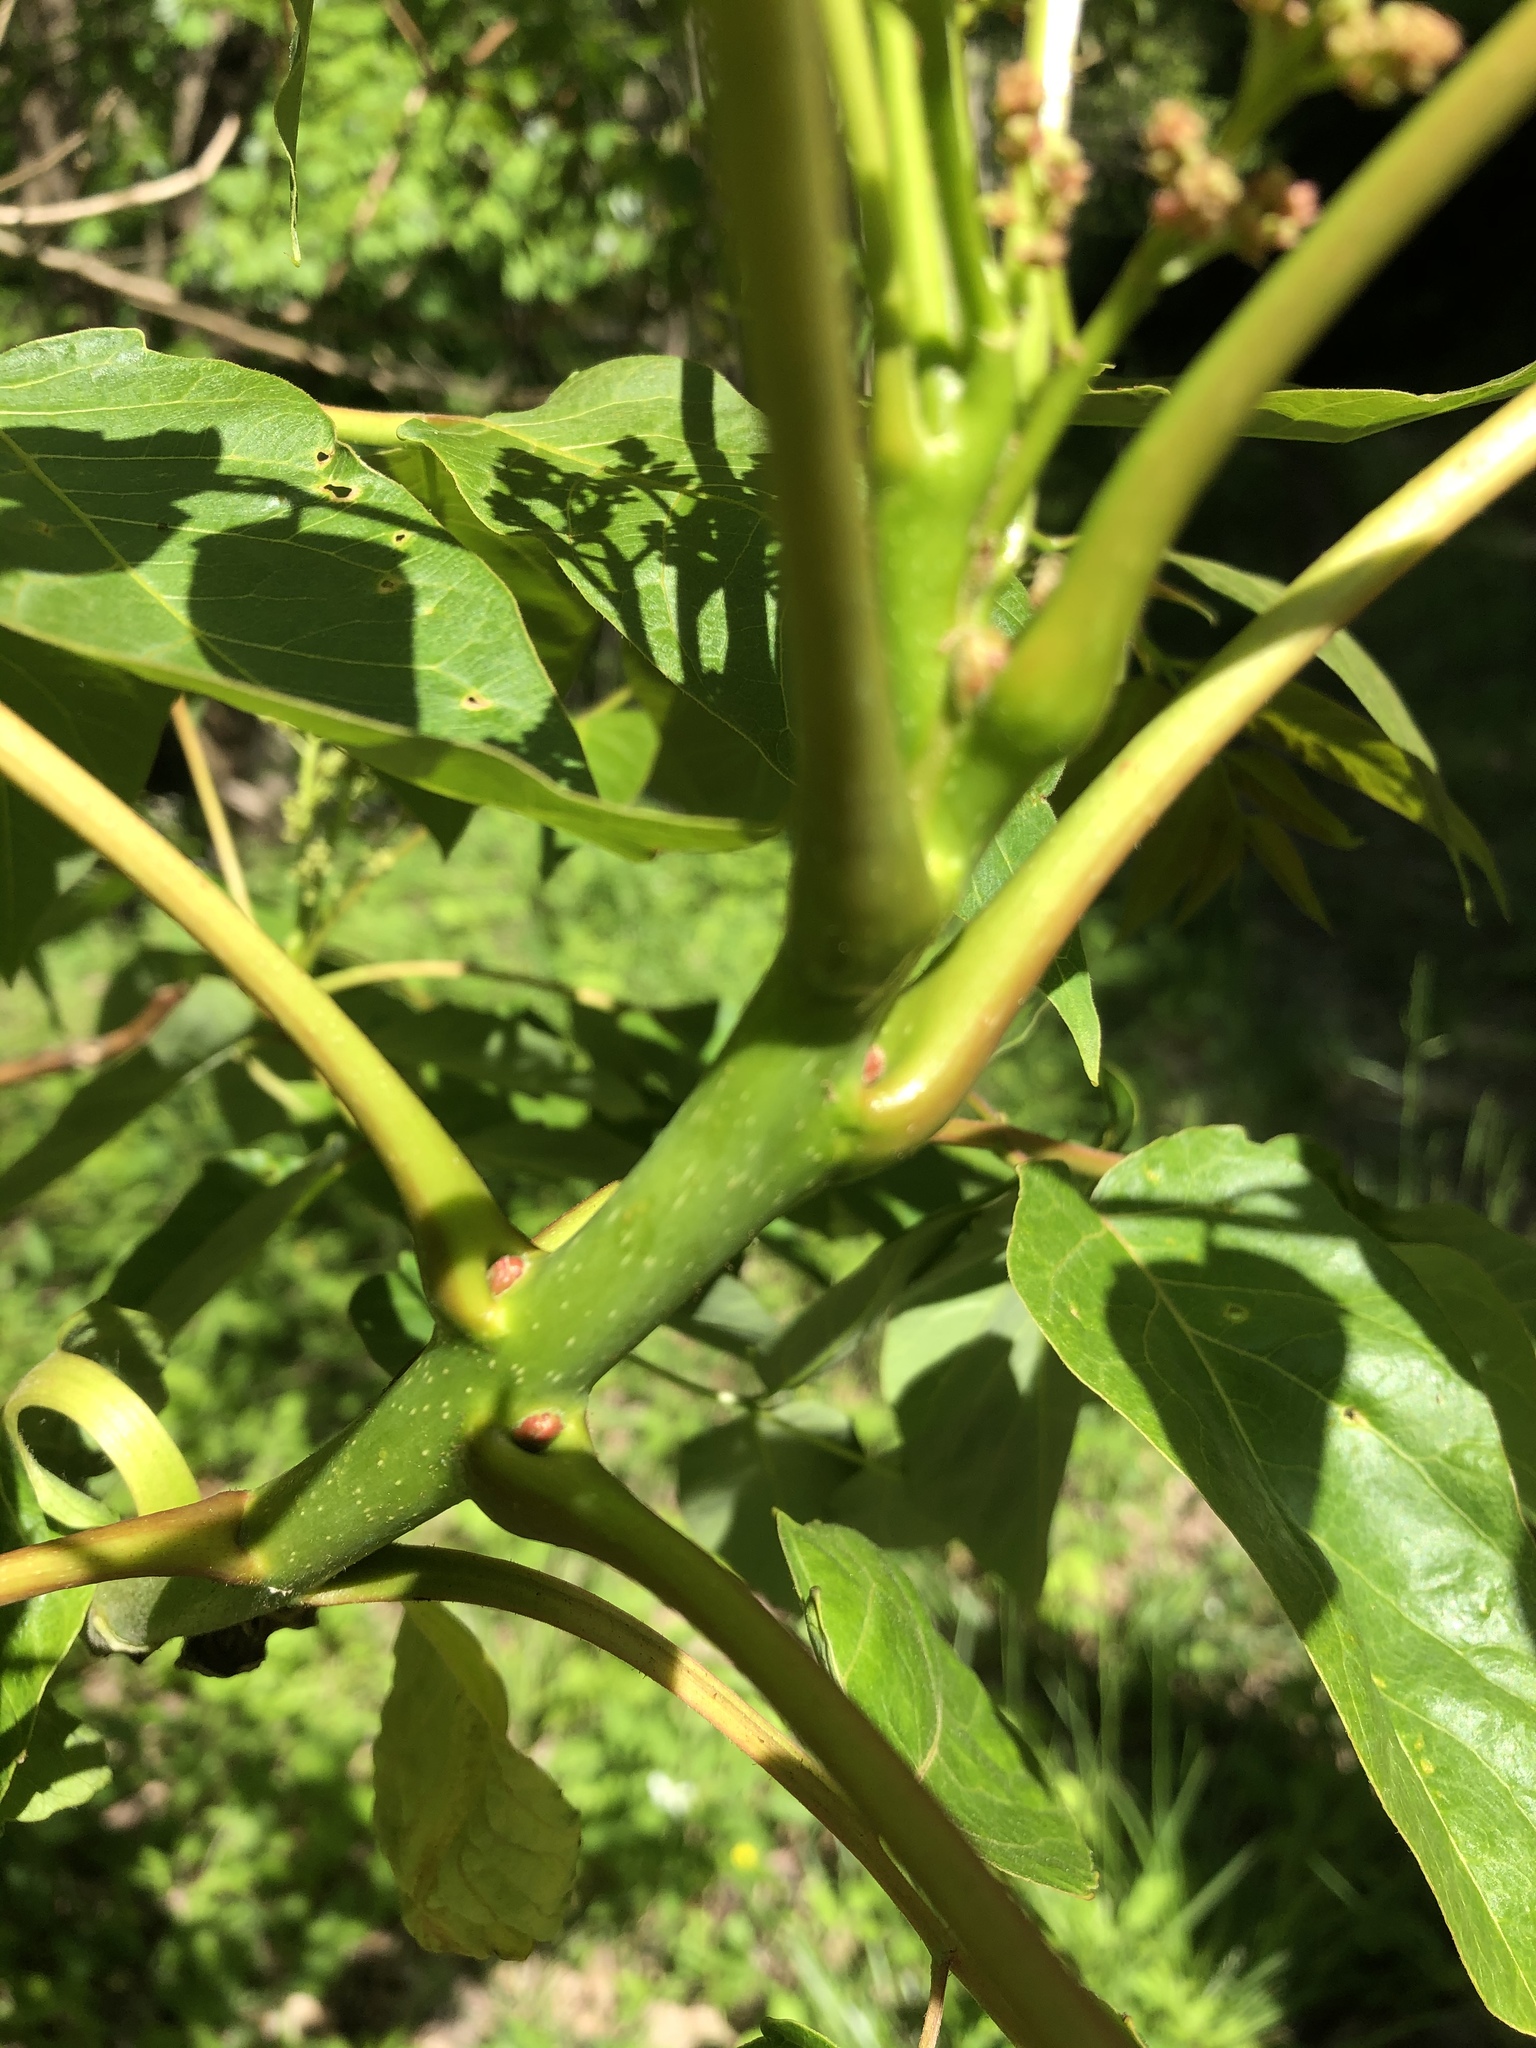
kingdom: Plantae
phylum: Tracheophyta
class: Magnoliopsida
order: Sapindales
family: Simaroubaceae
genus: Ailanthus
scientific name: Ailanthus altissima
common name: Tree-of-heaven
